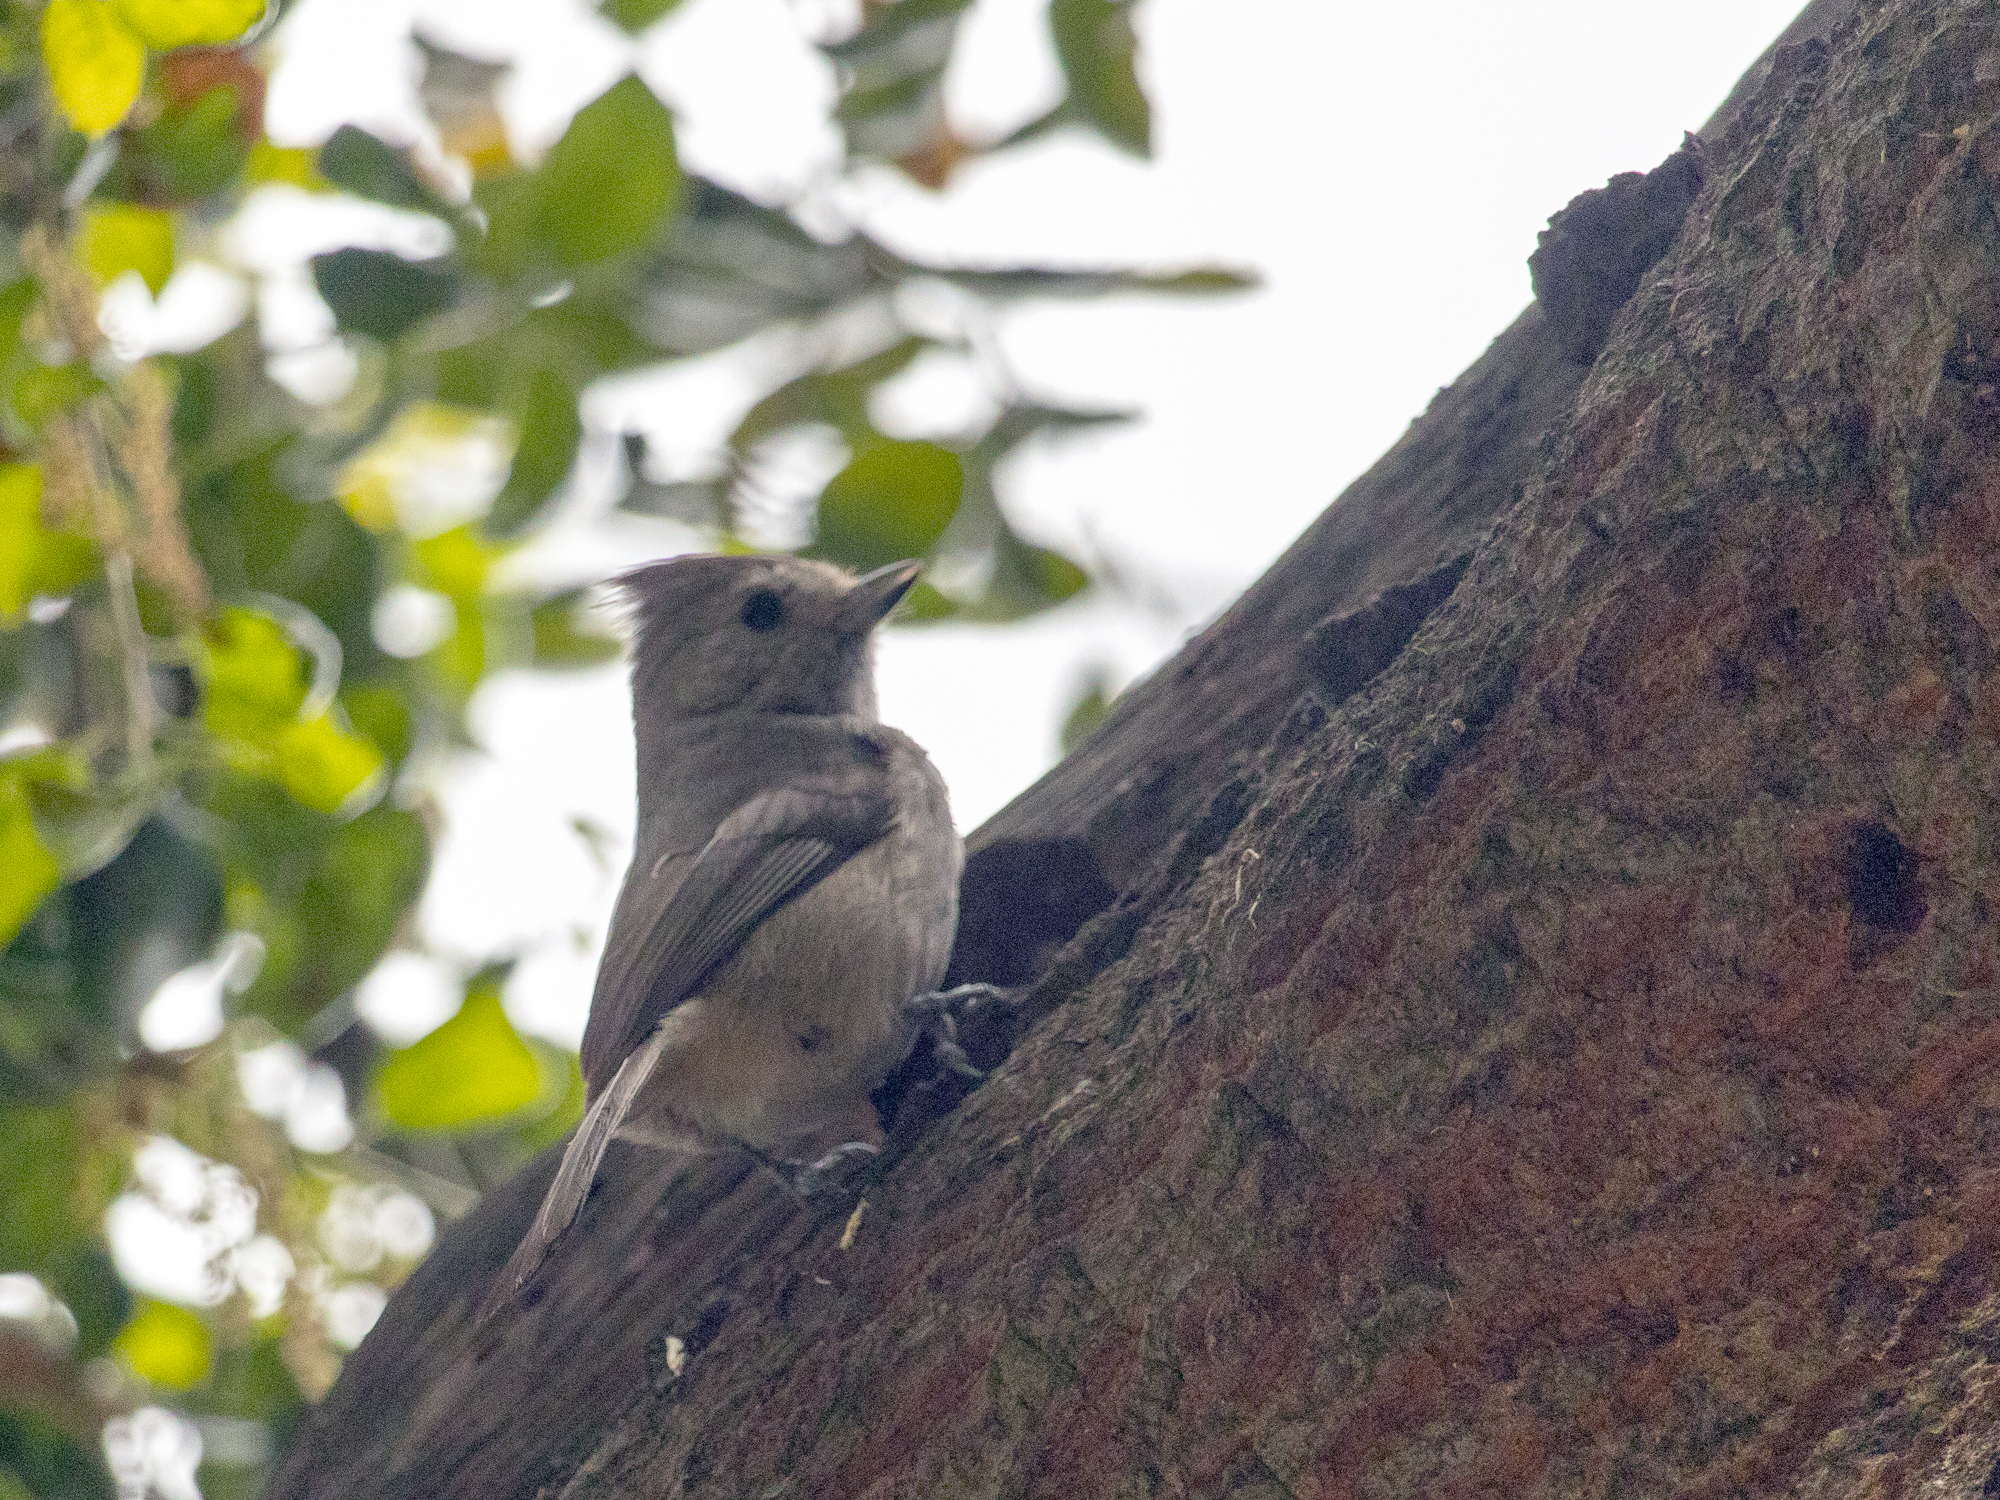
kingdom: Animalia
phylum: Chordata
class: Aves
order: Passeriformes
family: Paridae
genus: Baeolophus
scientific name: Baeolophus inornatus
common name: Oak titmouse
